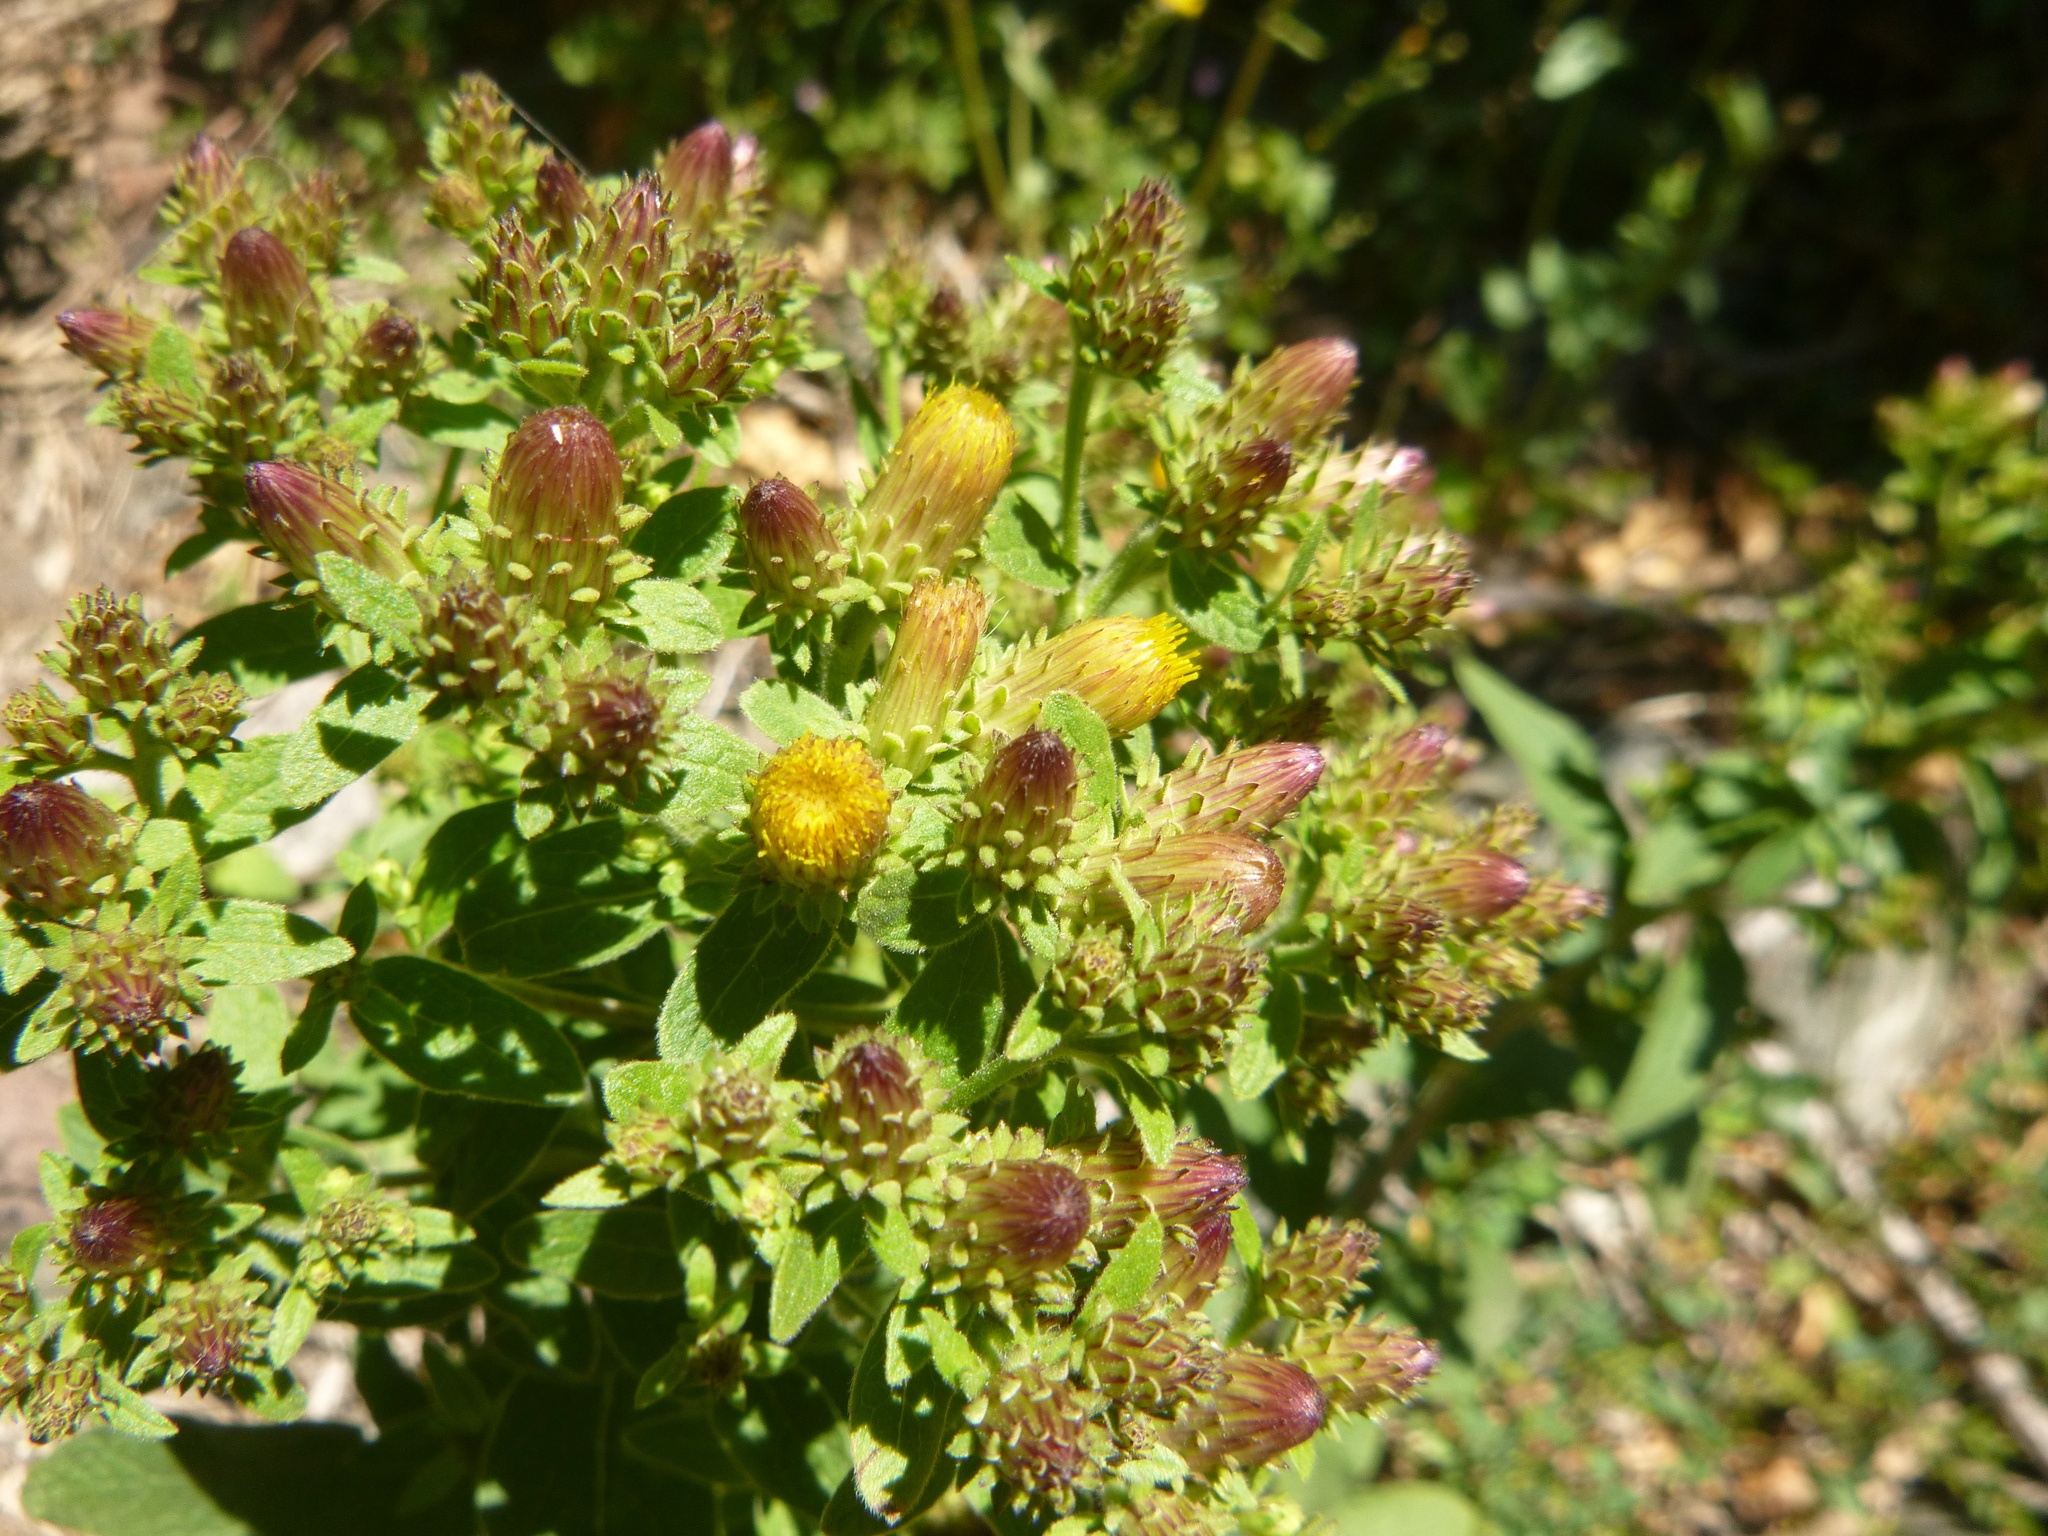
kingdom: Plantae
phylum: Tracheophyta
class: Magnoliopsida
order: Asterales
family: Asteraceae
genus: Pentanema
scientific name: Pentanema squarrosum
